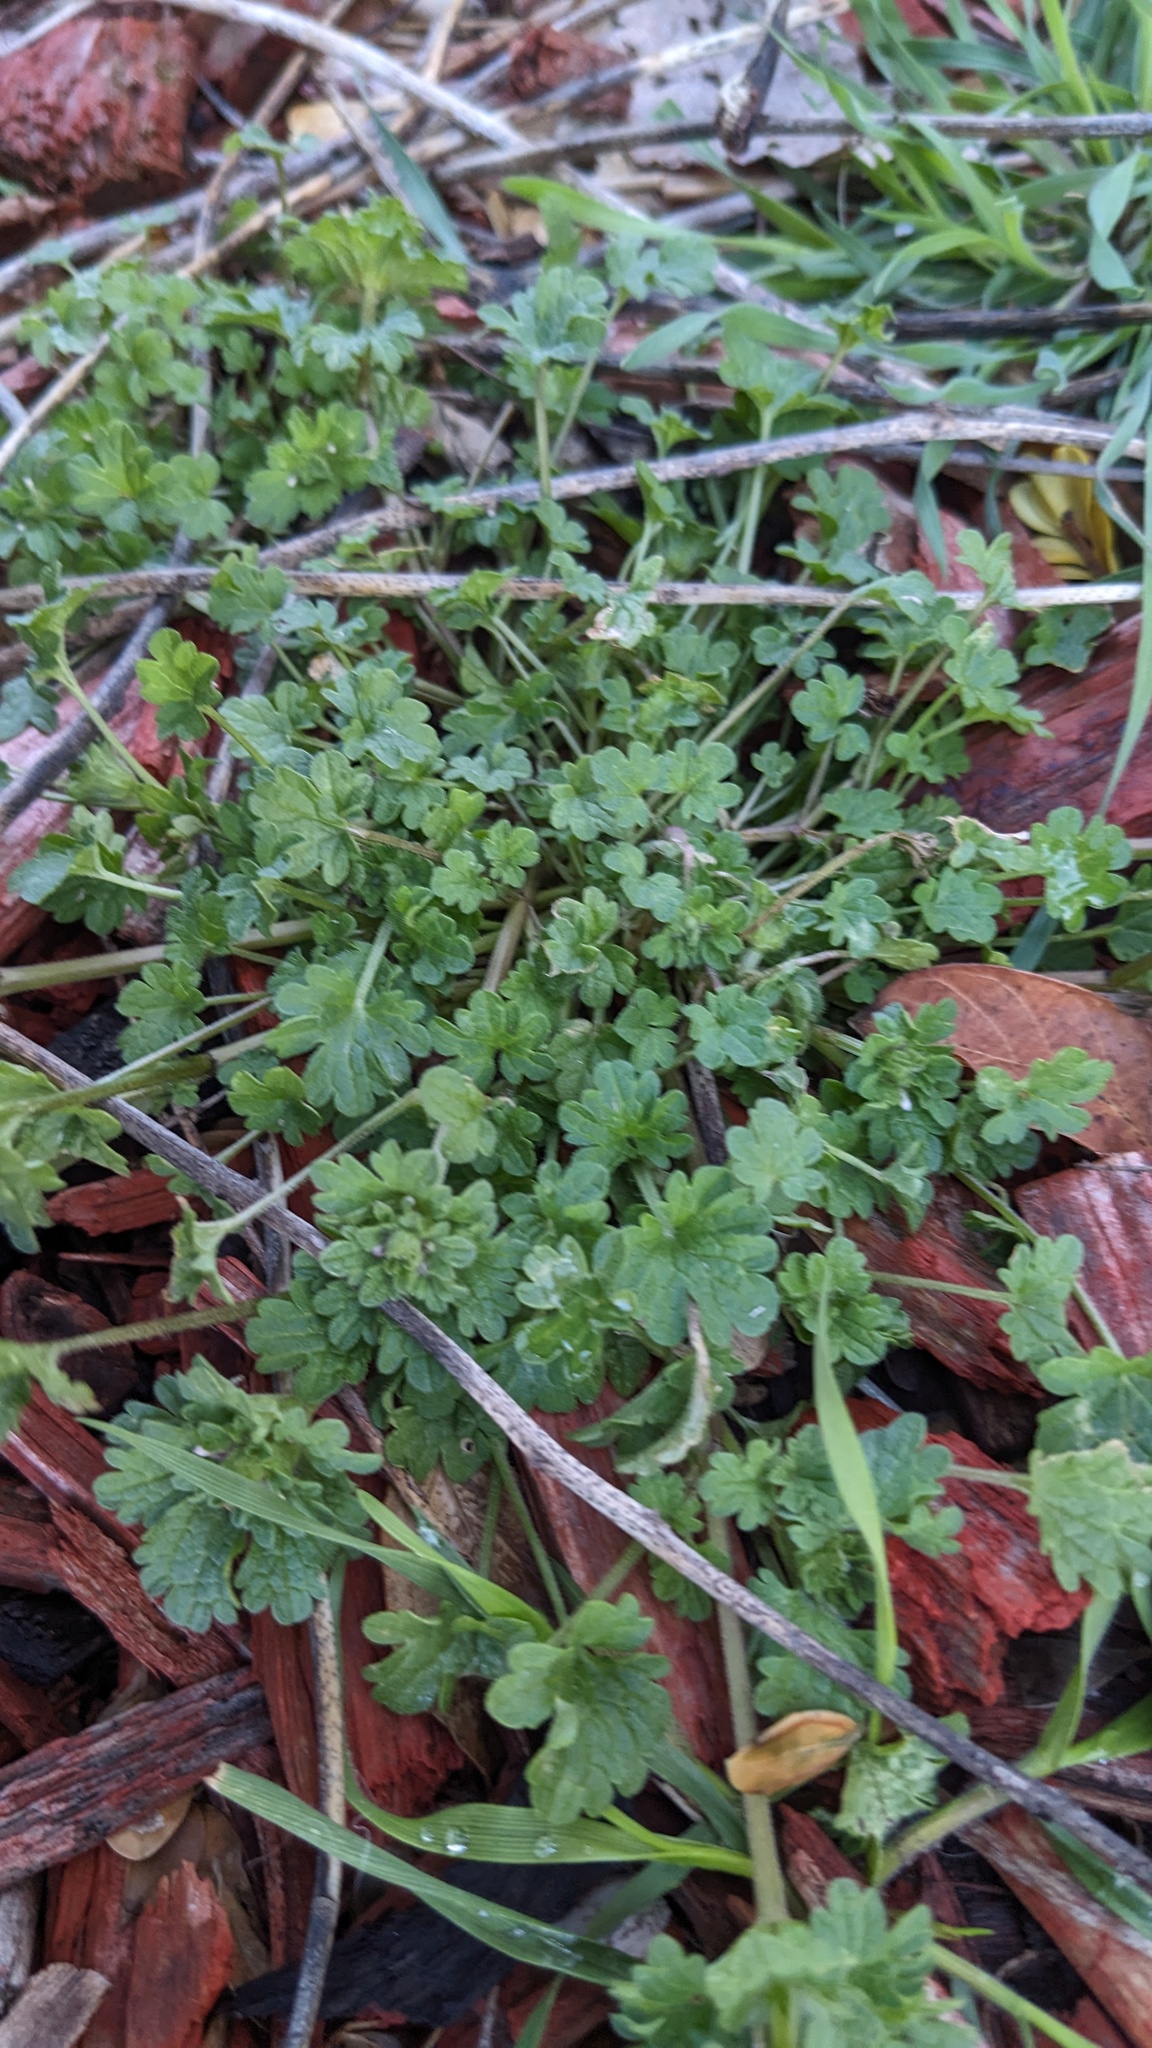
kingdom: Plantae
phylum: Tracheophyta
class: Magnoliopsida
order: Lamiales
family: Lamiaceae
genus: Lamium
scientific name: Lamium amplexicaule
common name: Henbit dead-nettle
